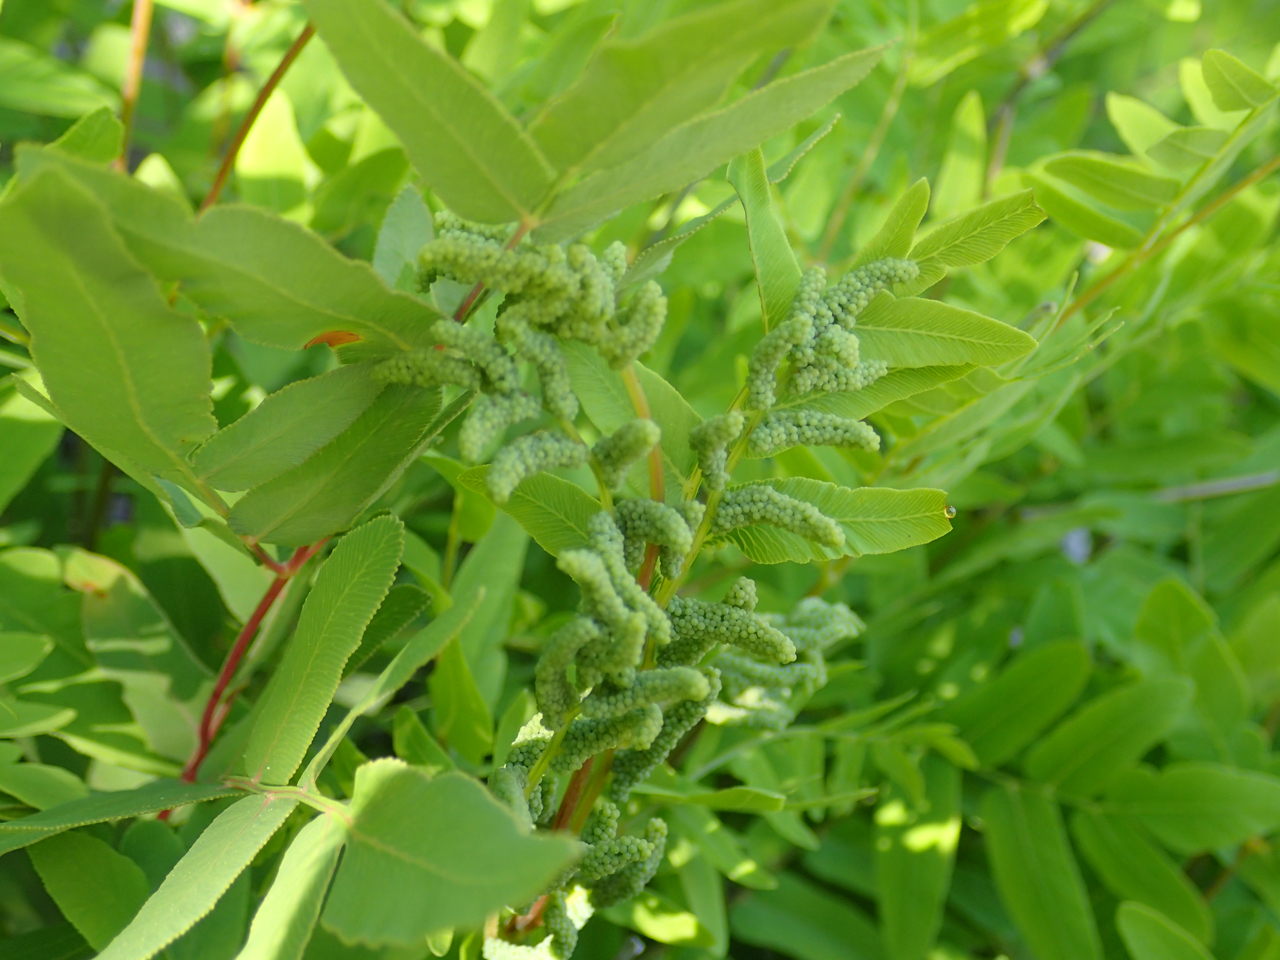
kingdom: Plantae
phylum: Tracheophyta
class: Polypodiopsida
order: Osmundales
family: Osmundaceae
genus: Osmunda
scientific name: Osmunda spectabilis
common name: American royal fern
